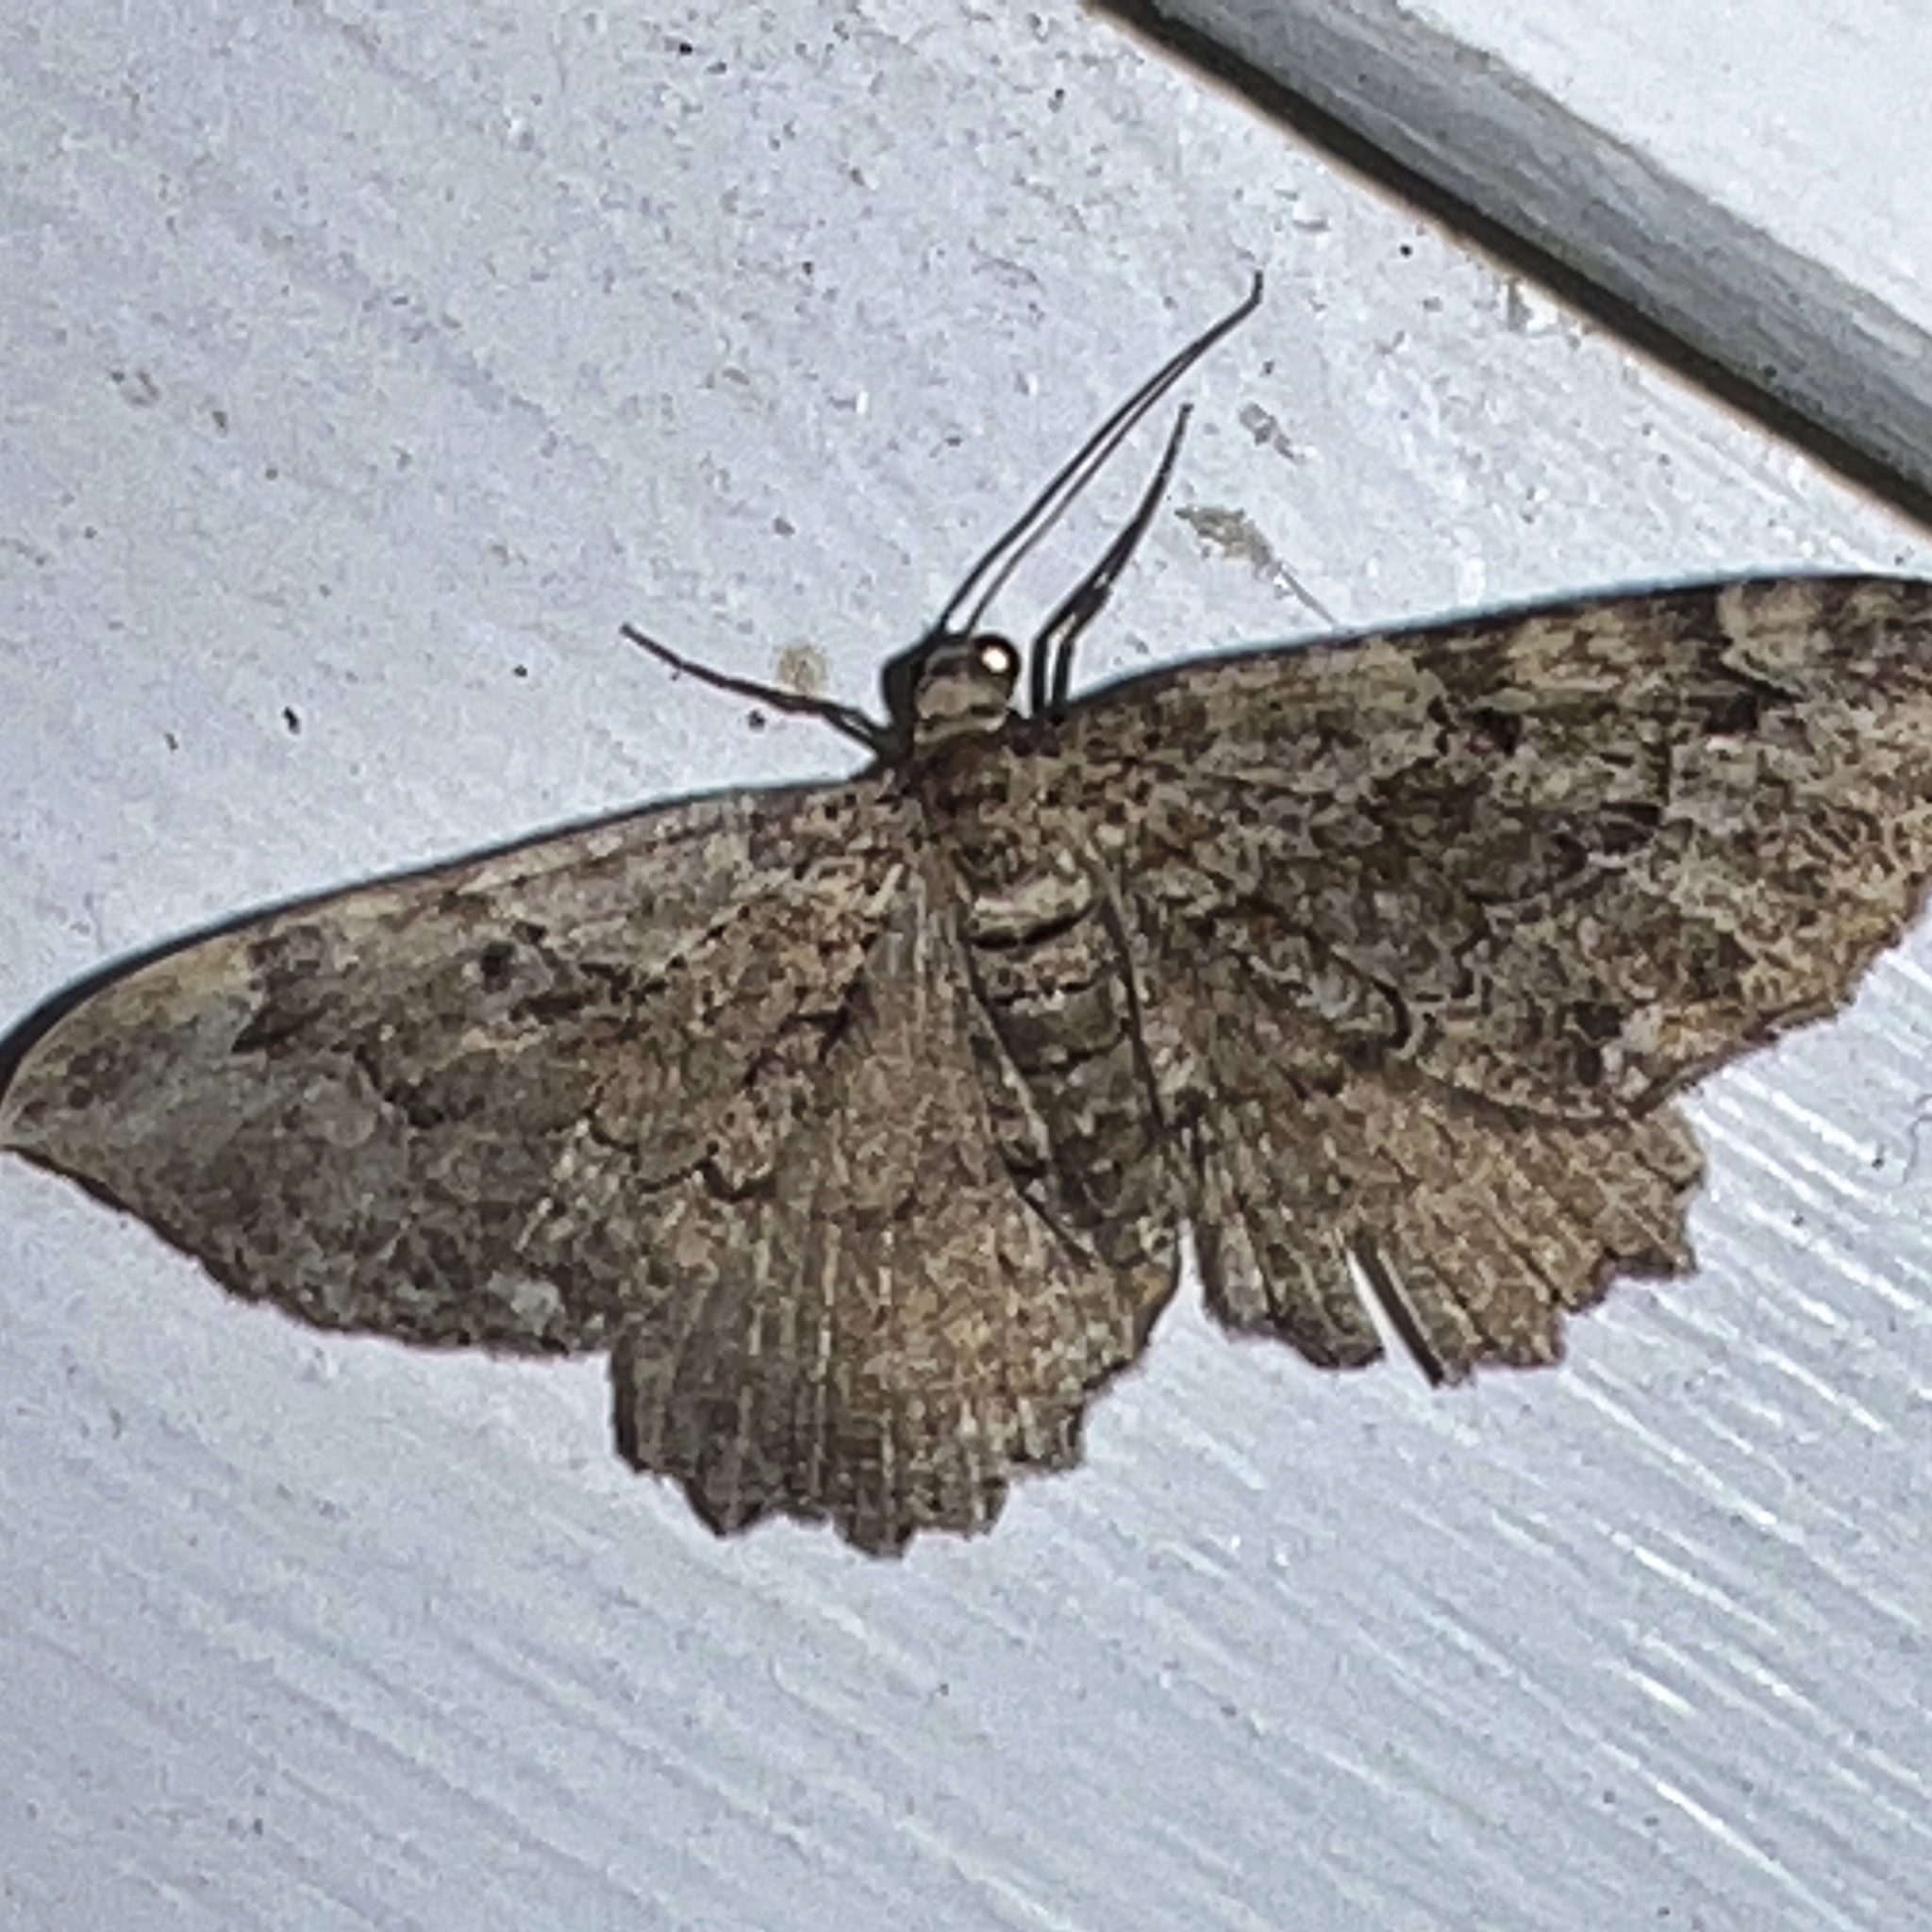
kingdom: Animalia
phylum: Arthropoda
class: Insecta
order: Lepidoptera
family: Geometridae
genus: Rheumaptera
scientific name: Rheumaptera
